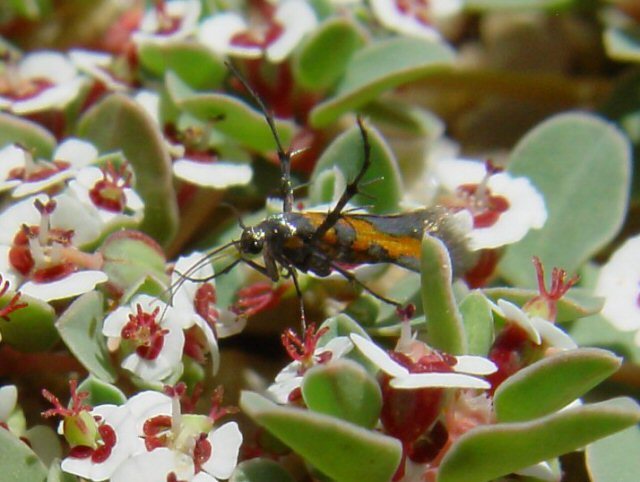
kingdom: Plantae
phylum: Tracheophyta
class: Magnoliopsida
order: Malpighiales
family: Euphorbiaceae
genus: Euphorbia
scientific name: Euphorbia albomarginata
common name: Whitemargin sandmat
